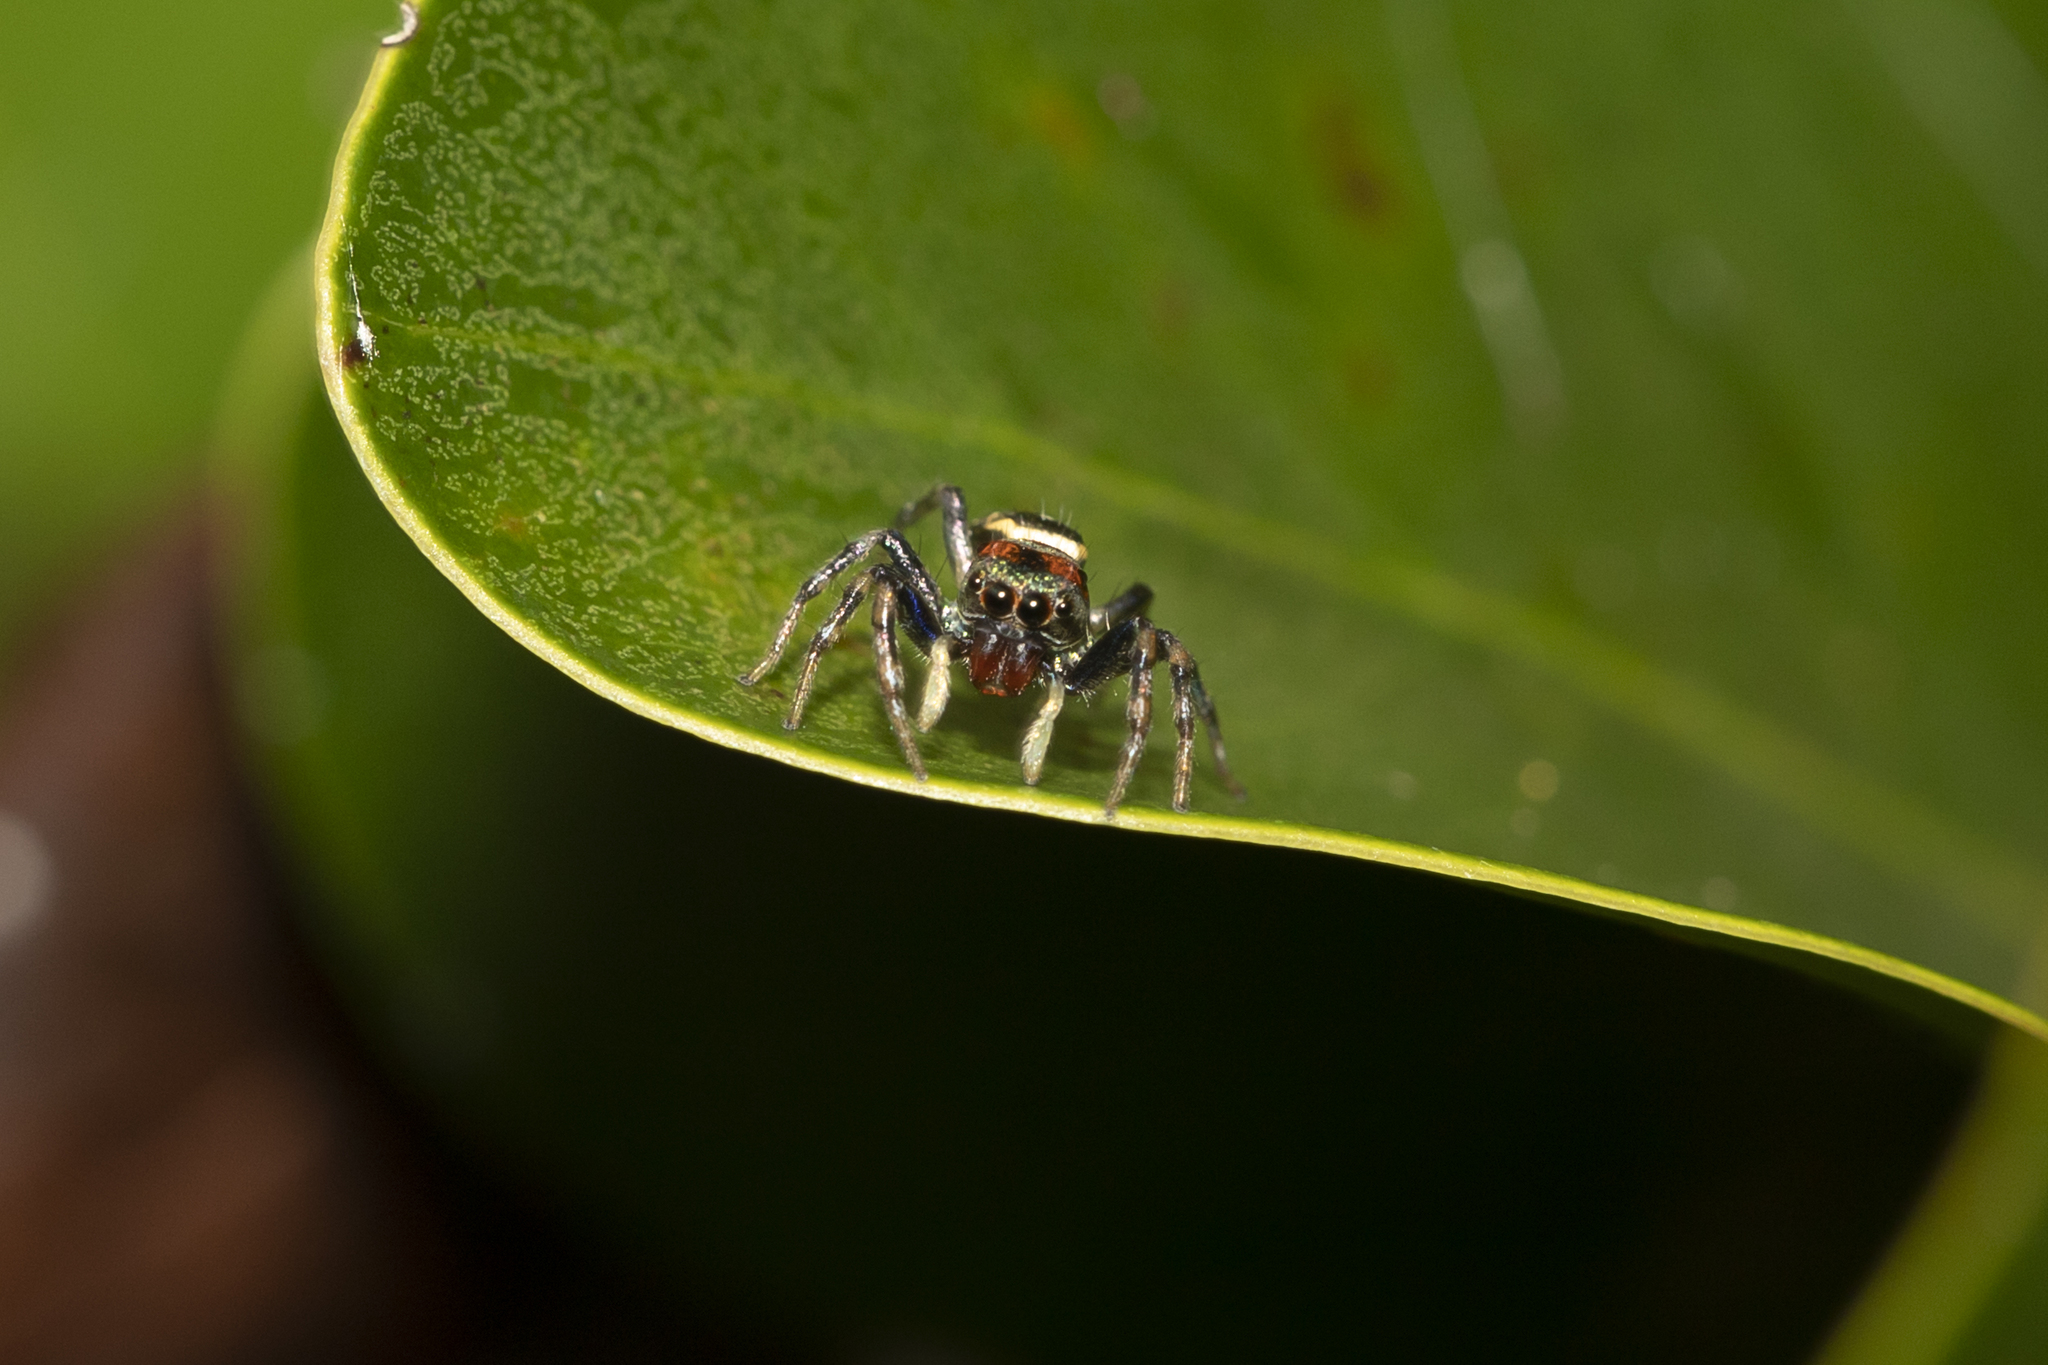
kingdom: Animalia
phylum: Arthropoda
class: Arachnida
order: Araneae
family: Salticidae
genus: Cosmophasis
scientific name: Cosmophasis micarioides
